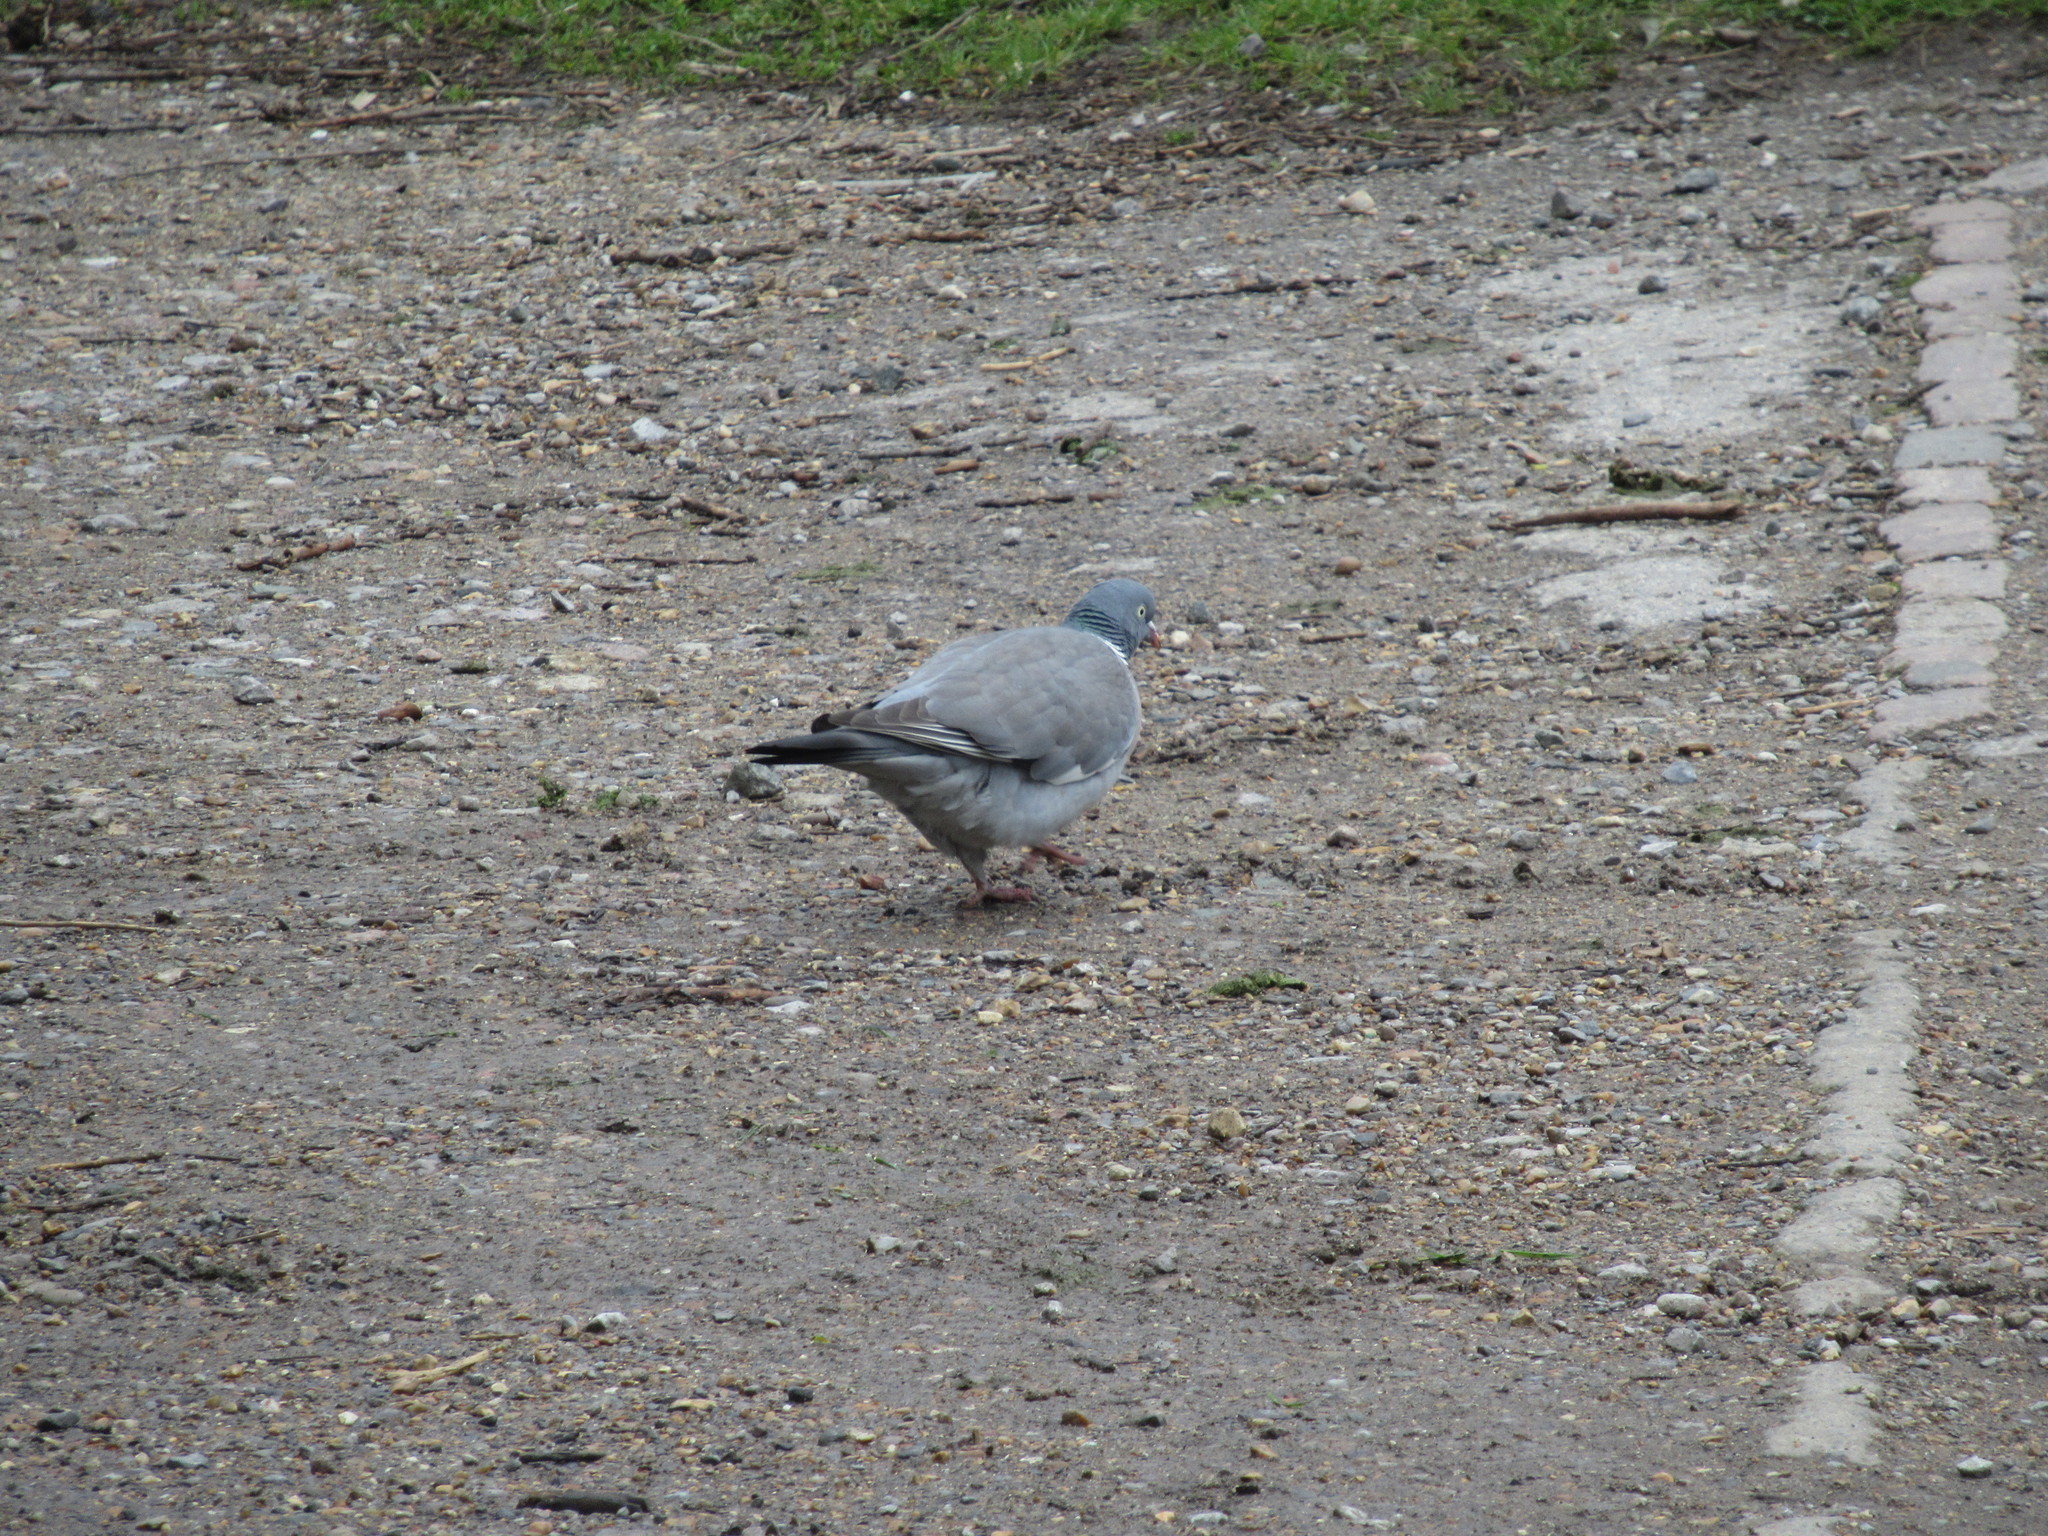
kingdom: Animalia
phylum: Chordata
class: Aves
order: Columbiformes
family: Columbidae
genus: Columba
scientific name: Columba palumbus
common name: Common wood pigeon
